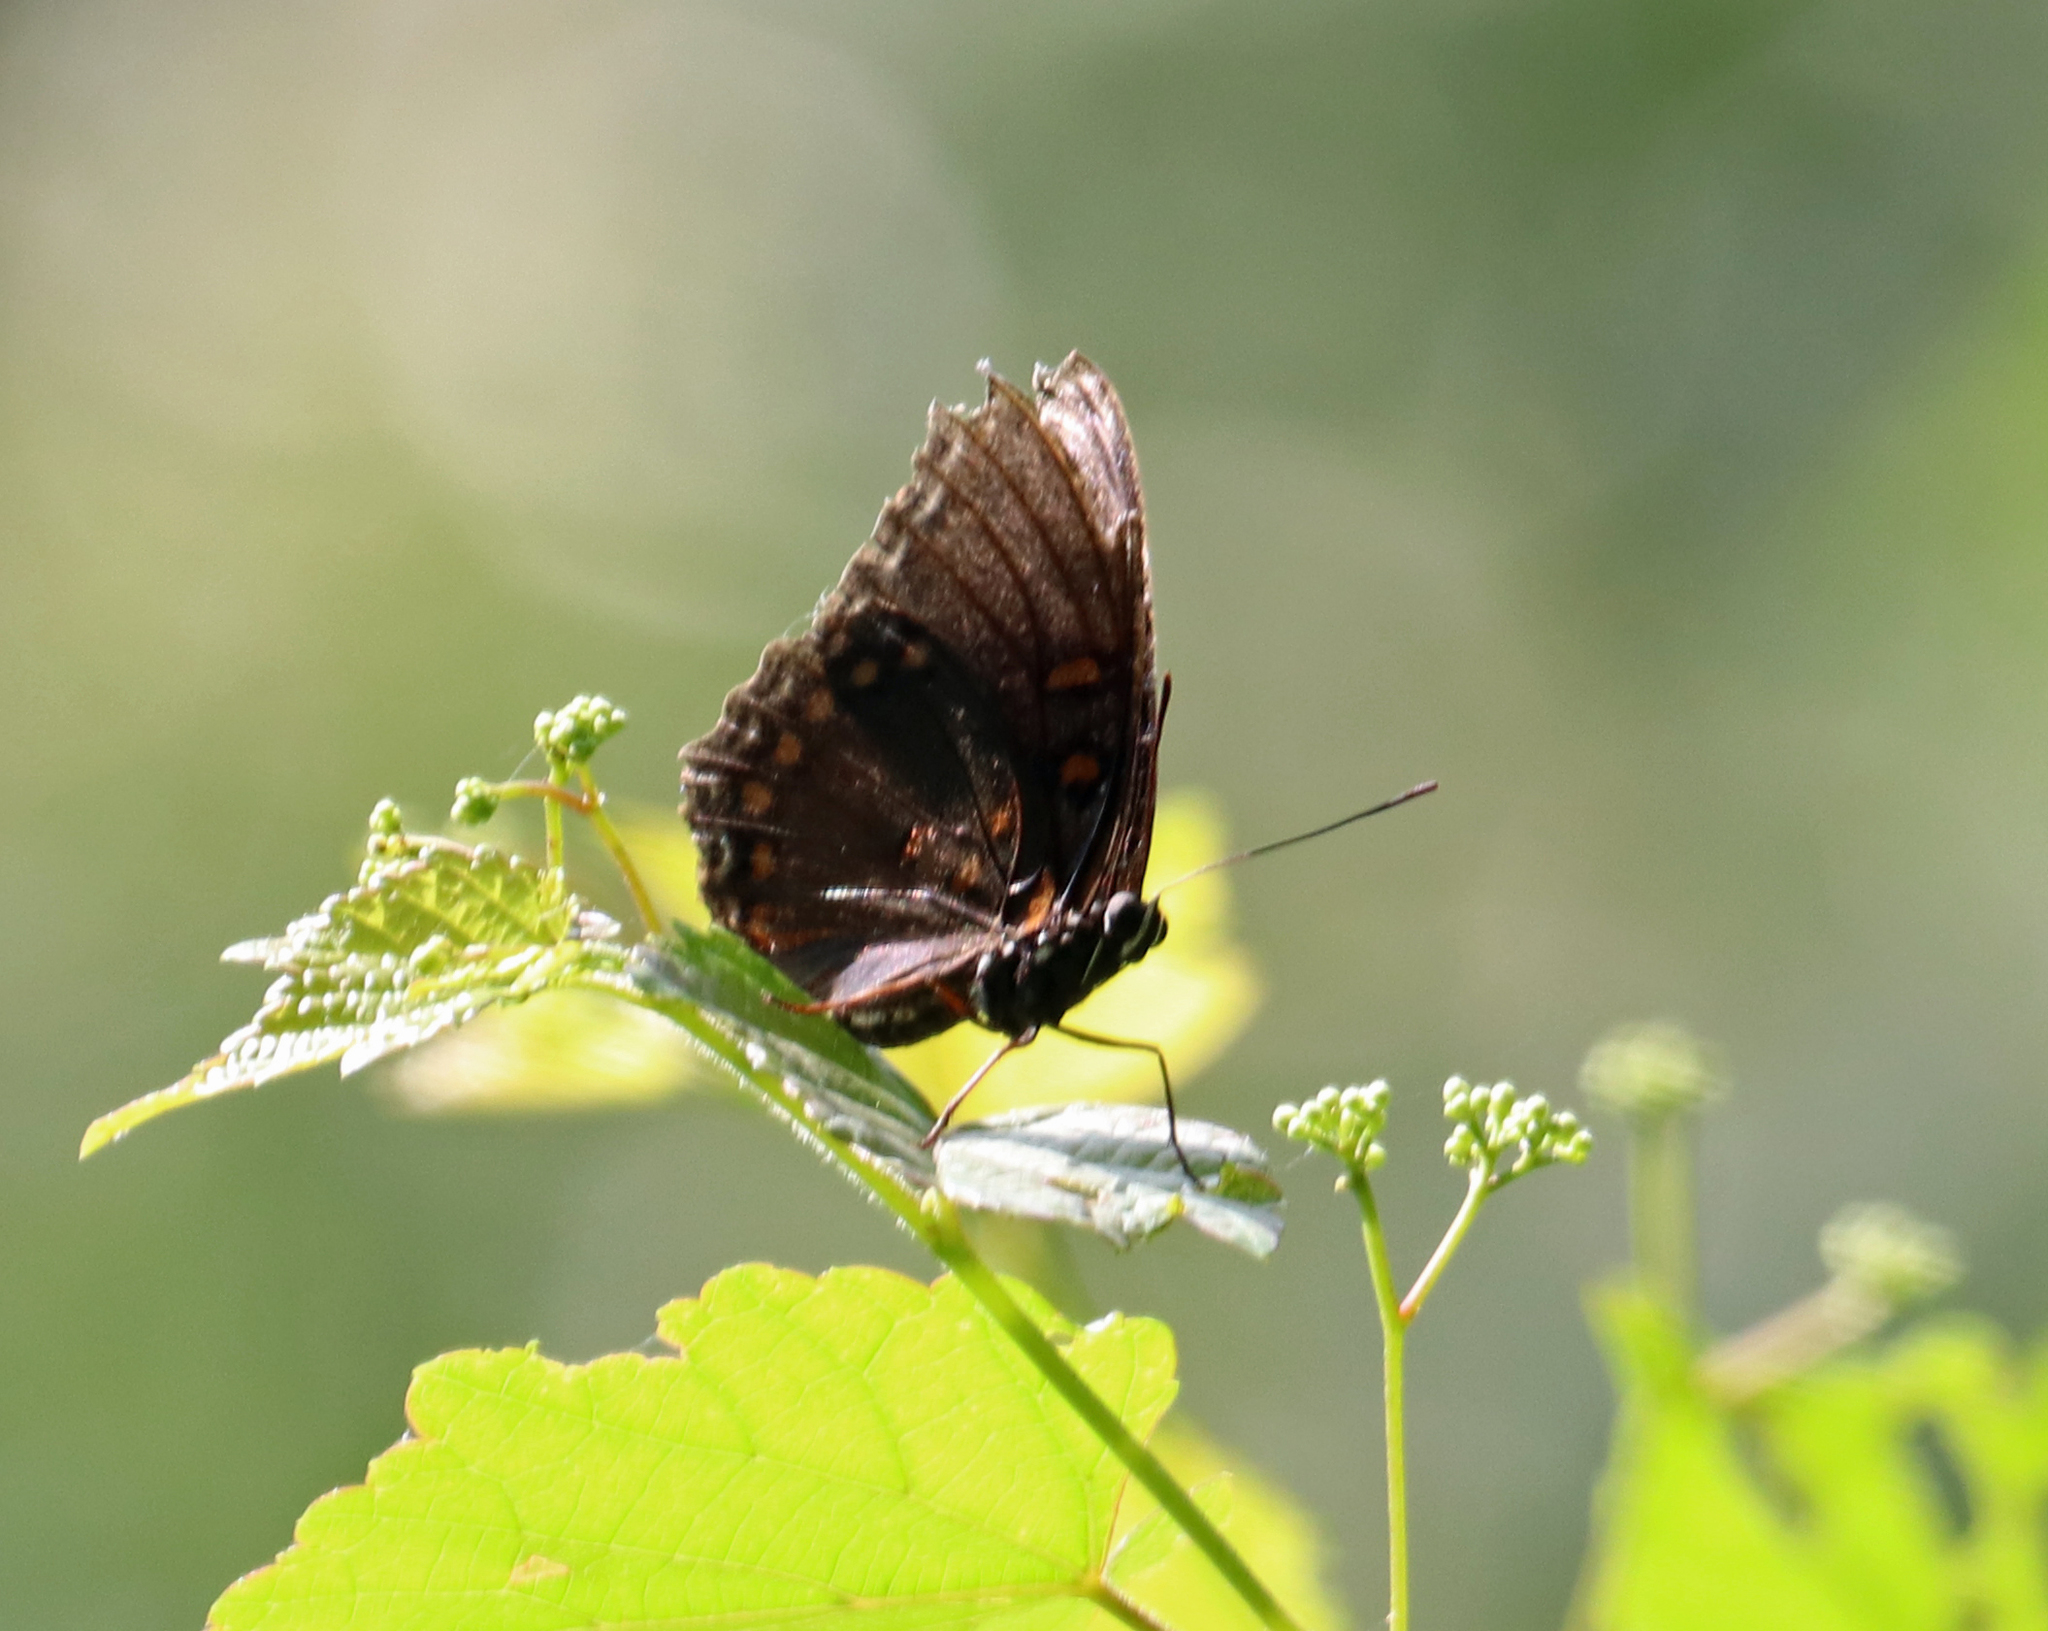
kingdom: Animalia
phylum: Arthropoda
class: Insecta
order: Lepidoptera
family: Nymphalidae
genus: Limenitis
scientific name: Limenitis astyanax
